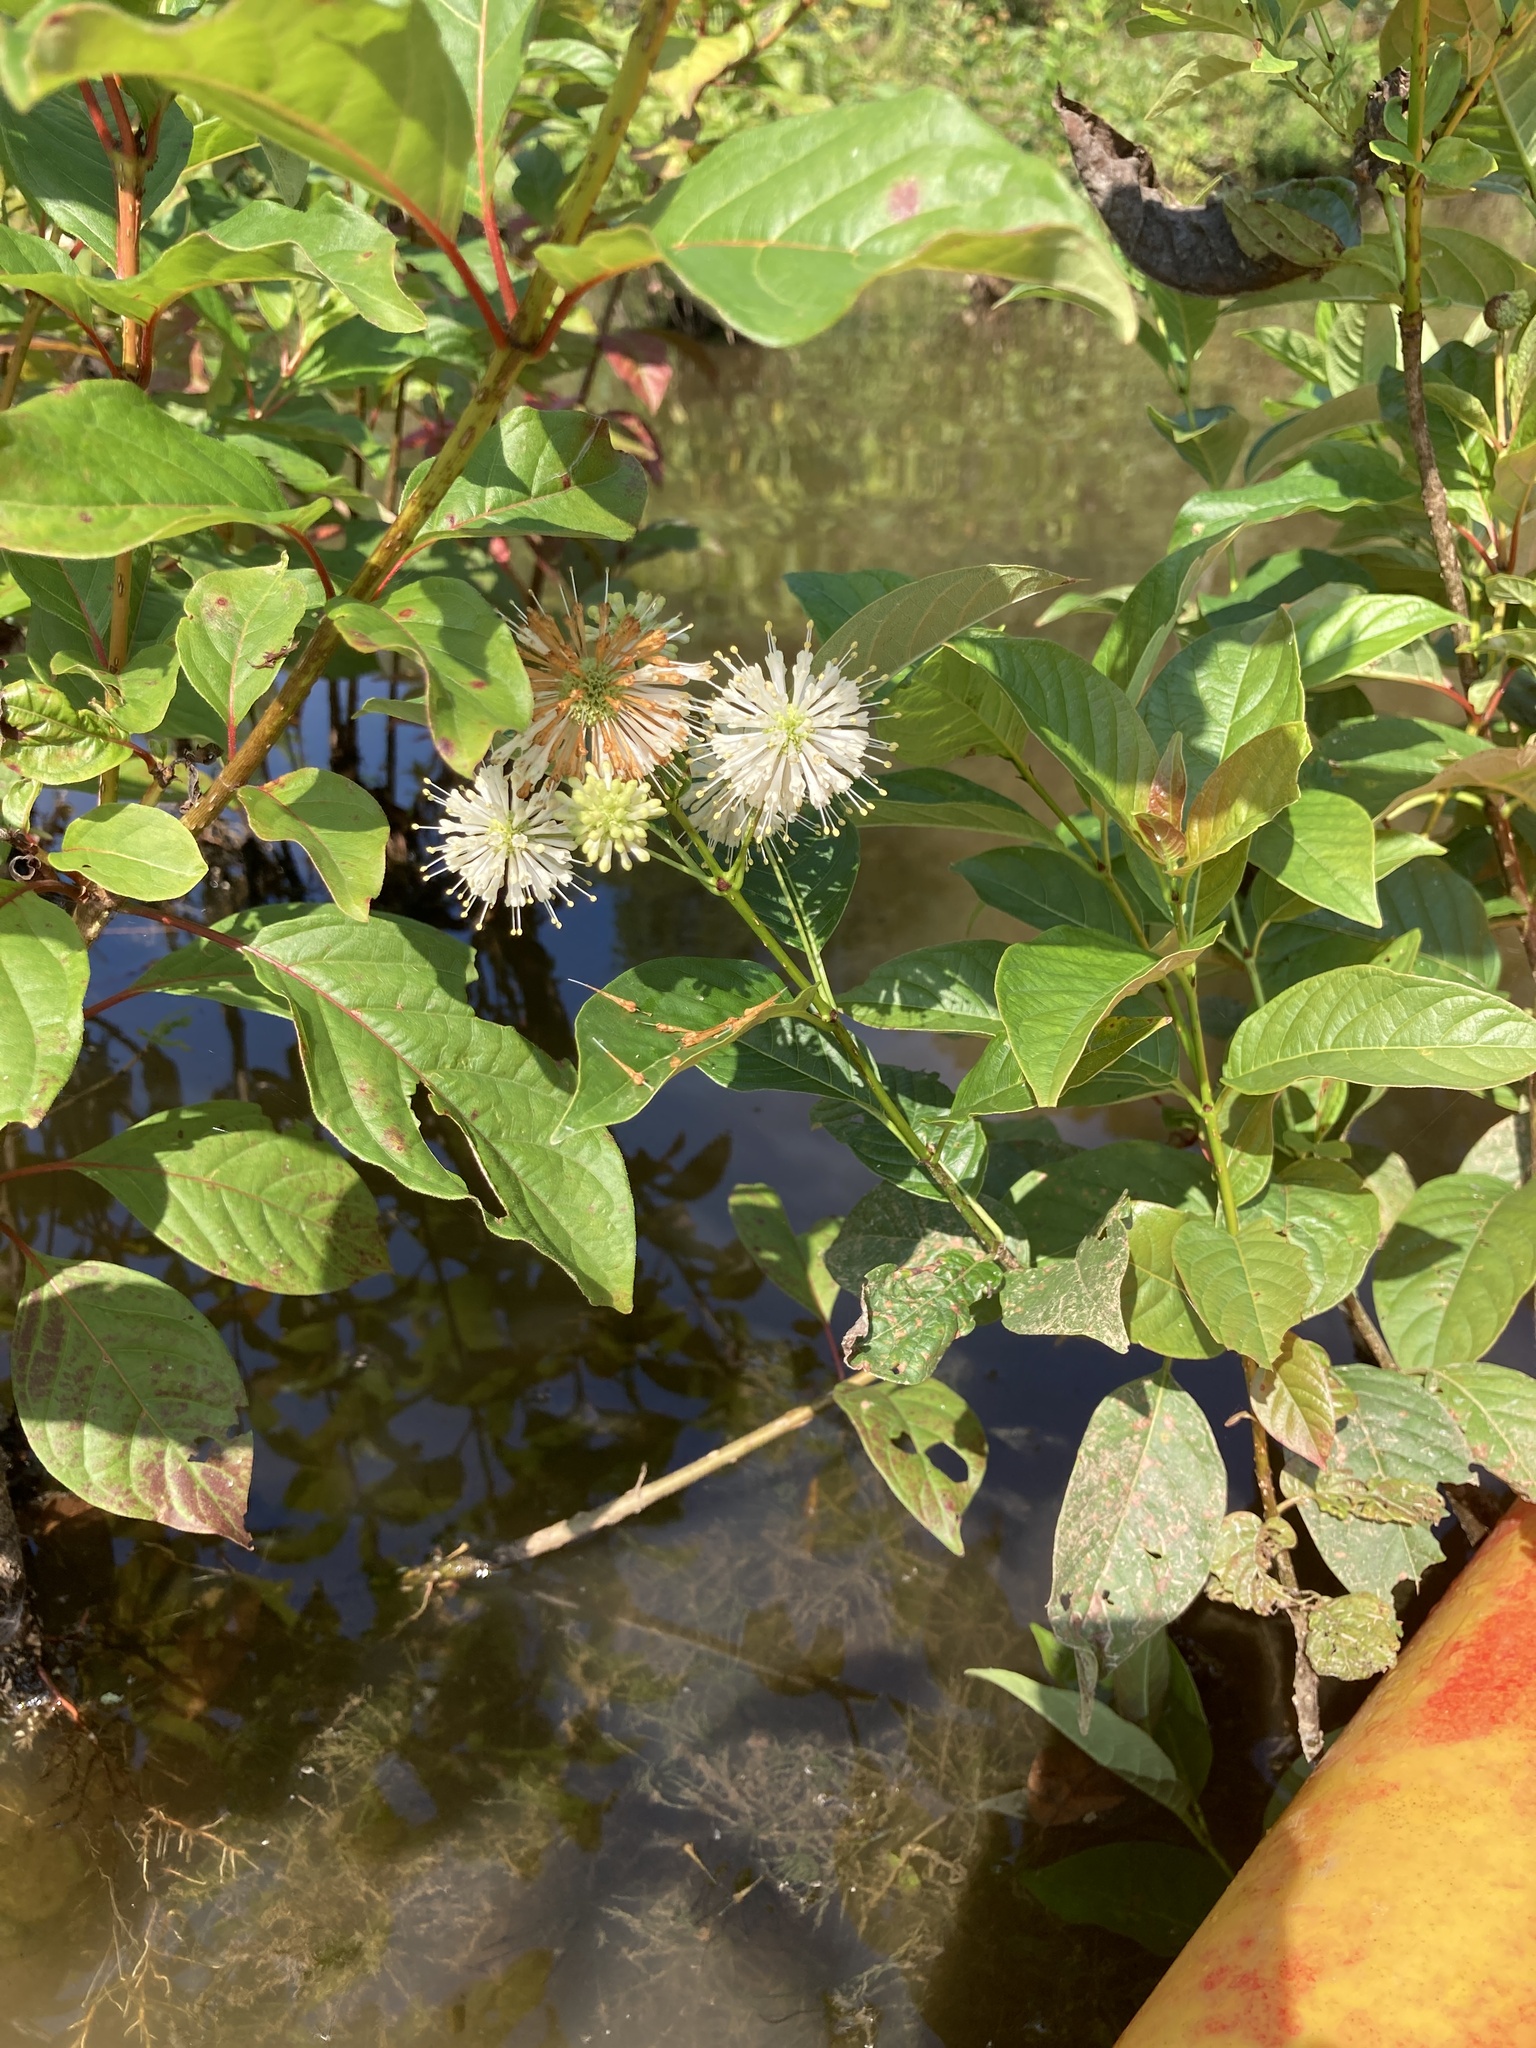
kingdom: Plantae
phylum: Tracheophyta
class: Magnoliopsida
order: Gentianales
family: Rubiaceae
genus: Cephalanthus
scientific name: Cephalanthus occidentalis
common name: Button-willow
